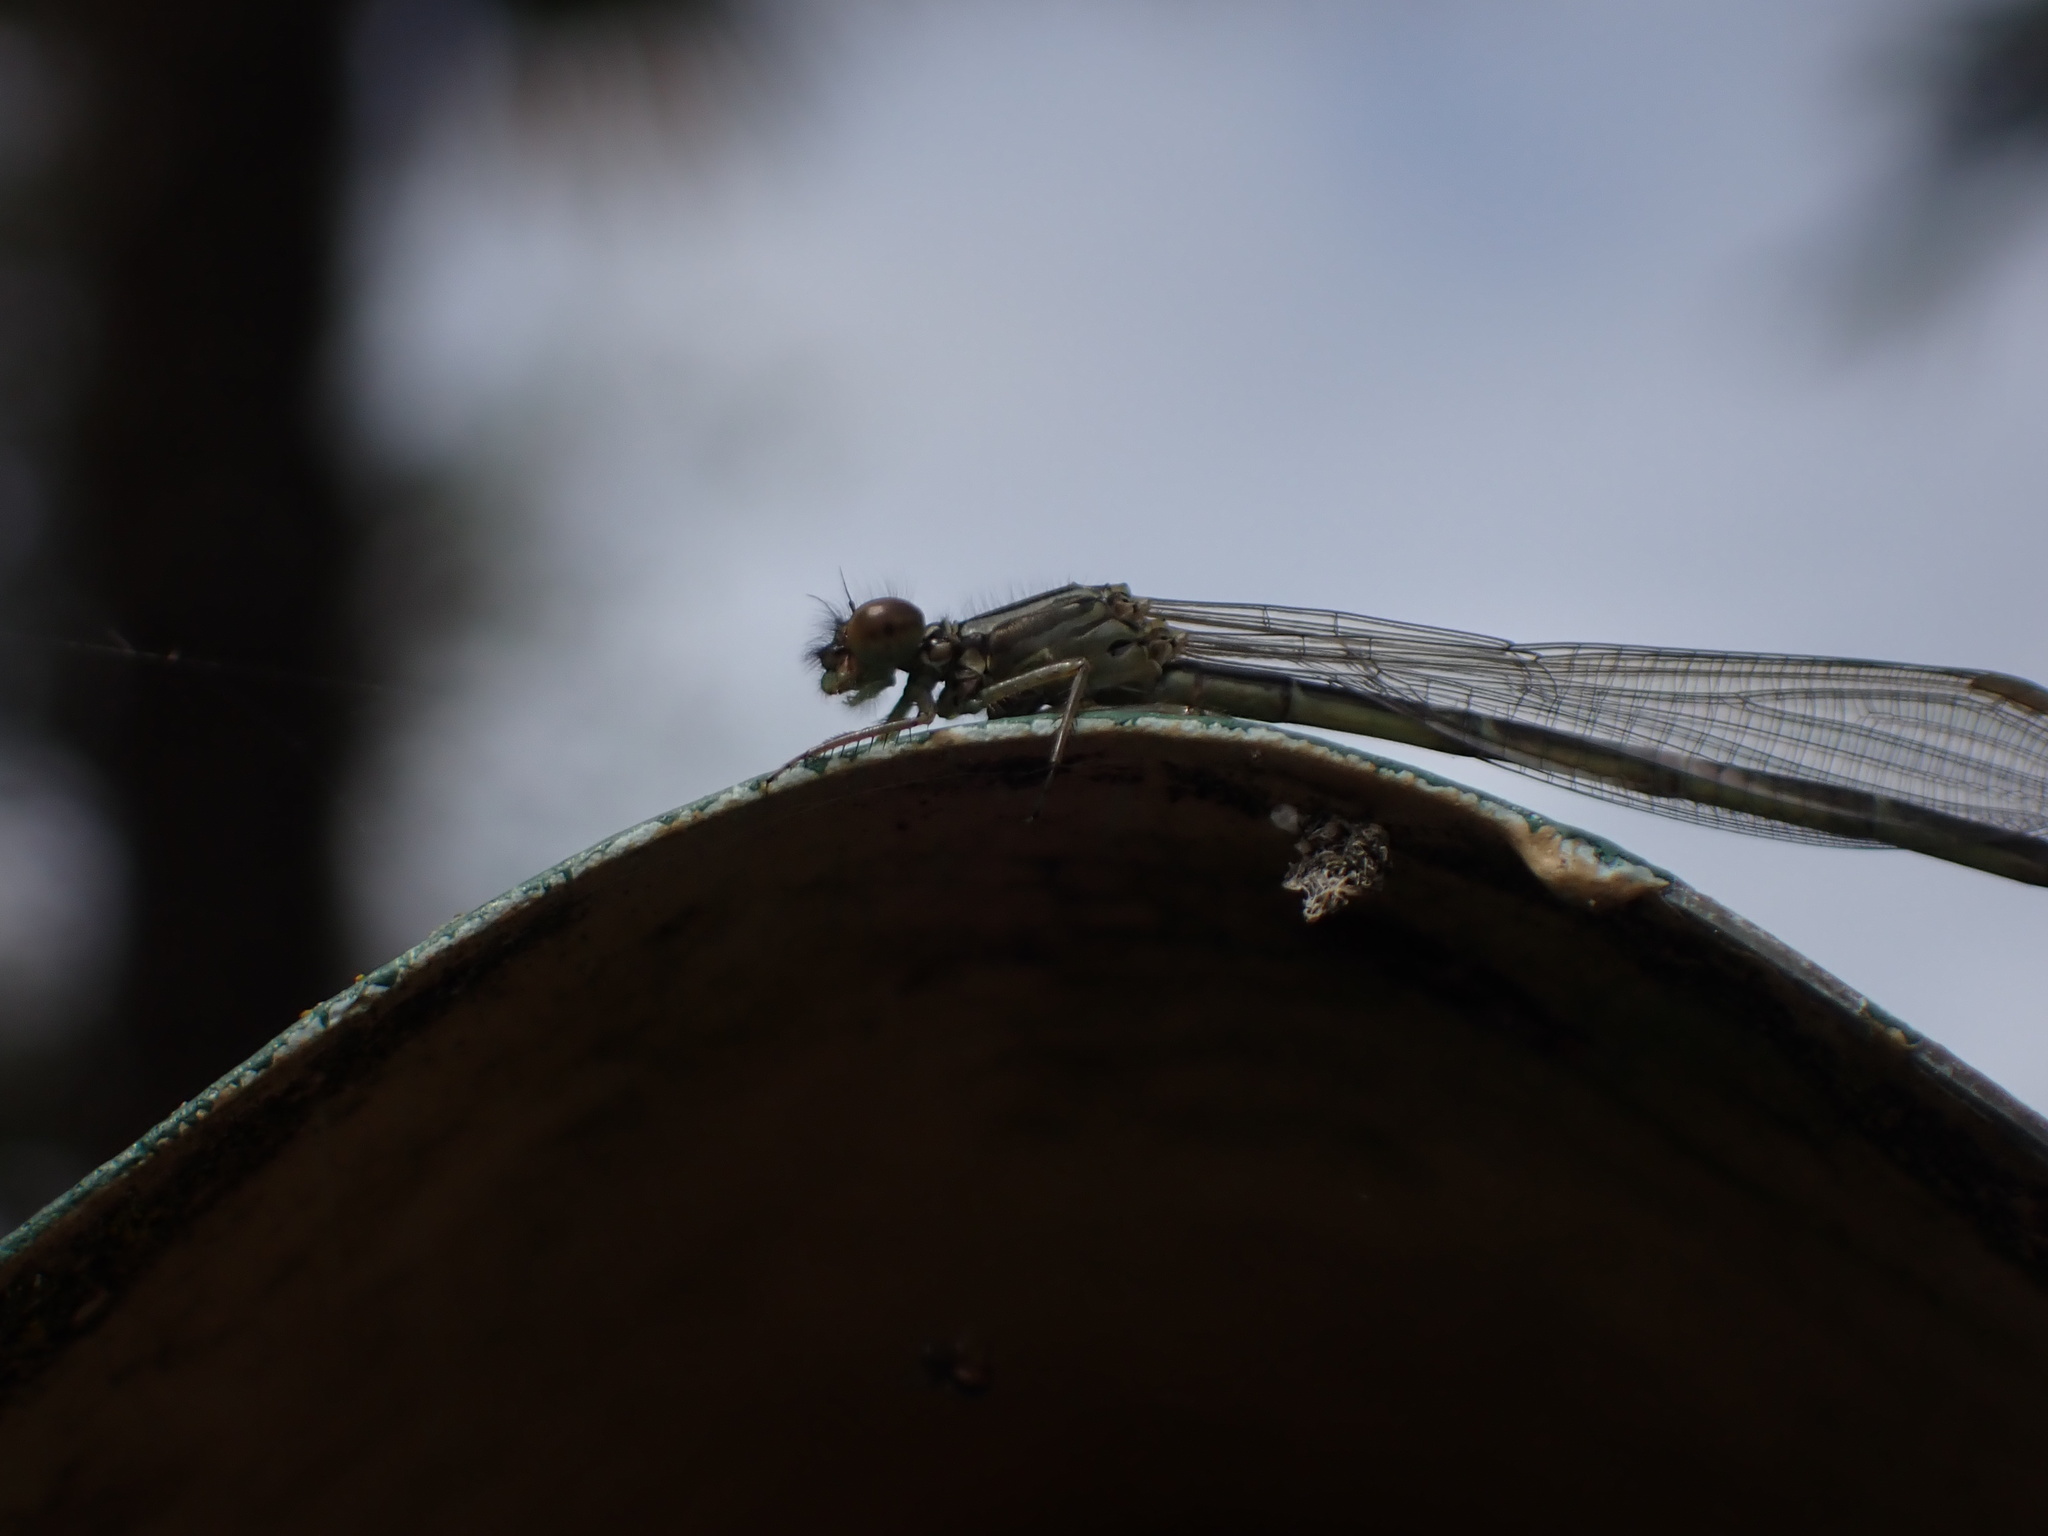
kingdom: Animalia
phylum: Arthropoda
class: Insecta
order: Odonata
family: Coenagrionidae
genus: Xanthocnemis
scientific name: Xanthocnemis zealandica
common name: Common redcoat damselfly
